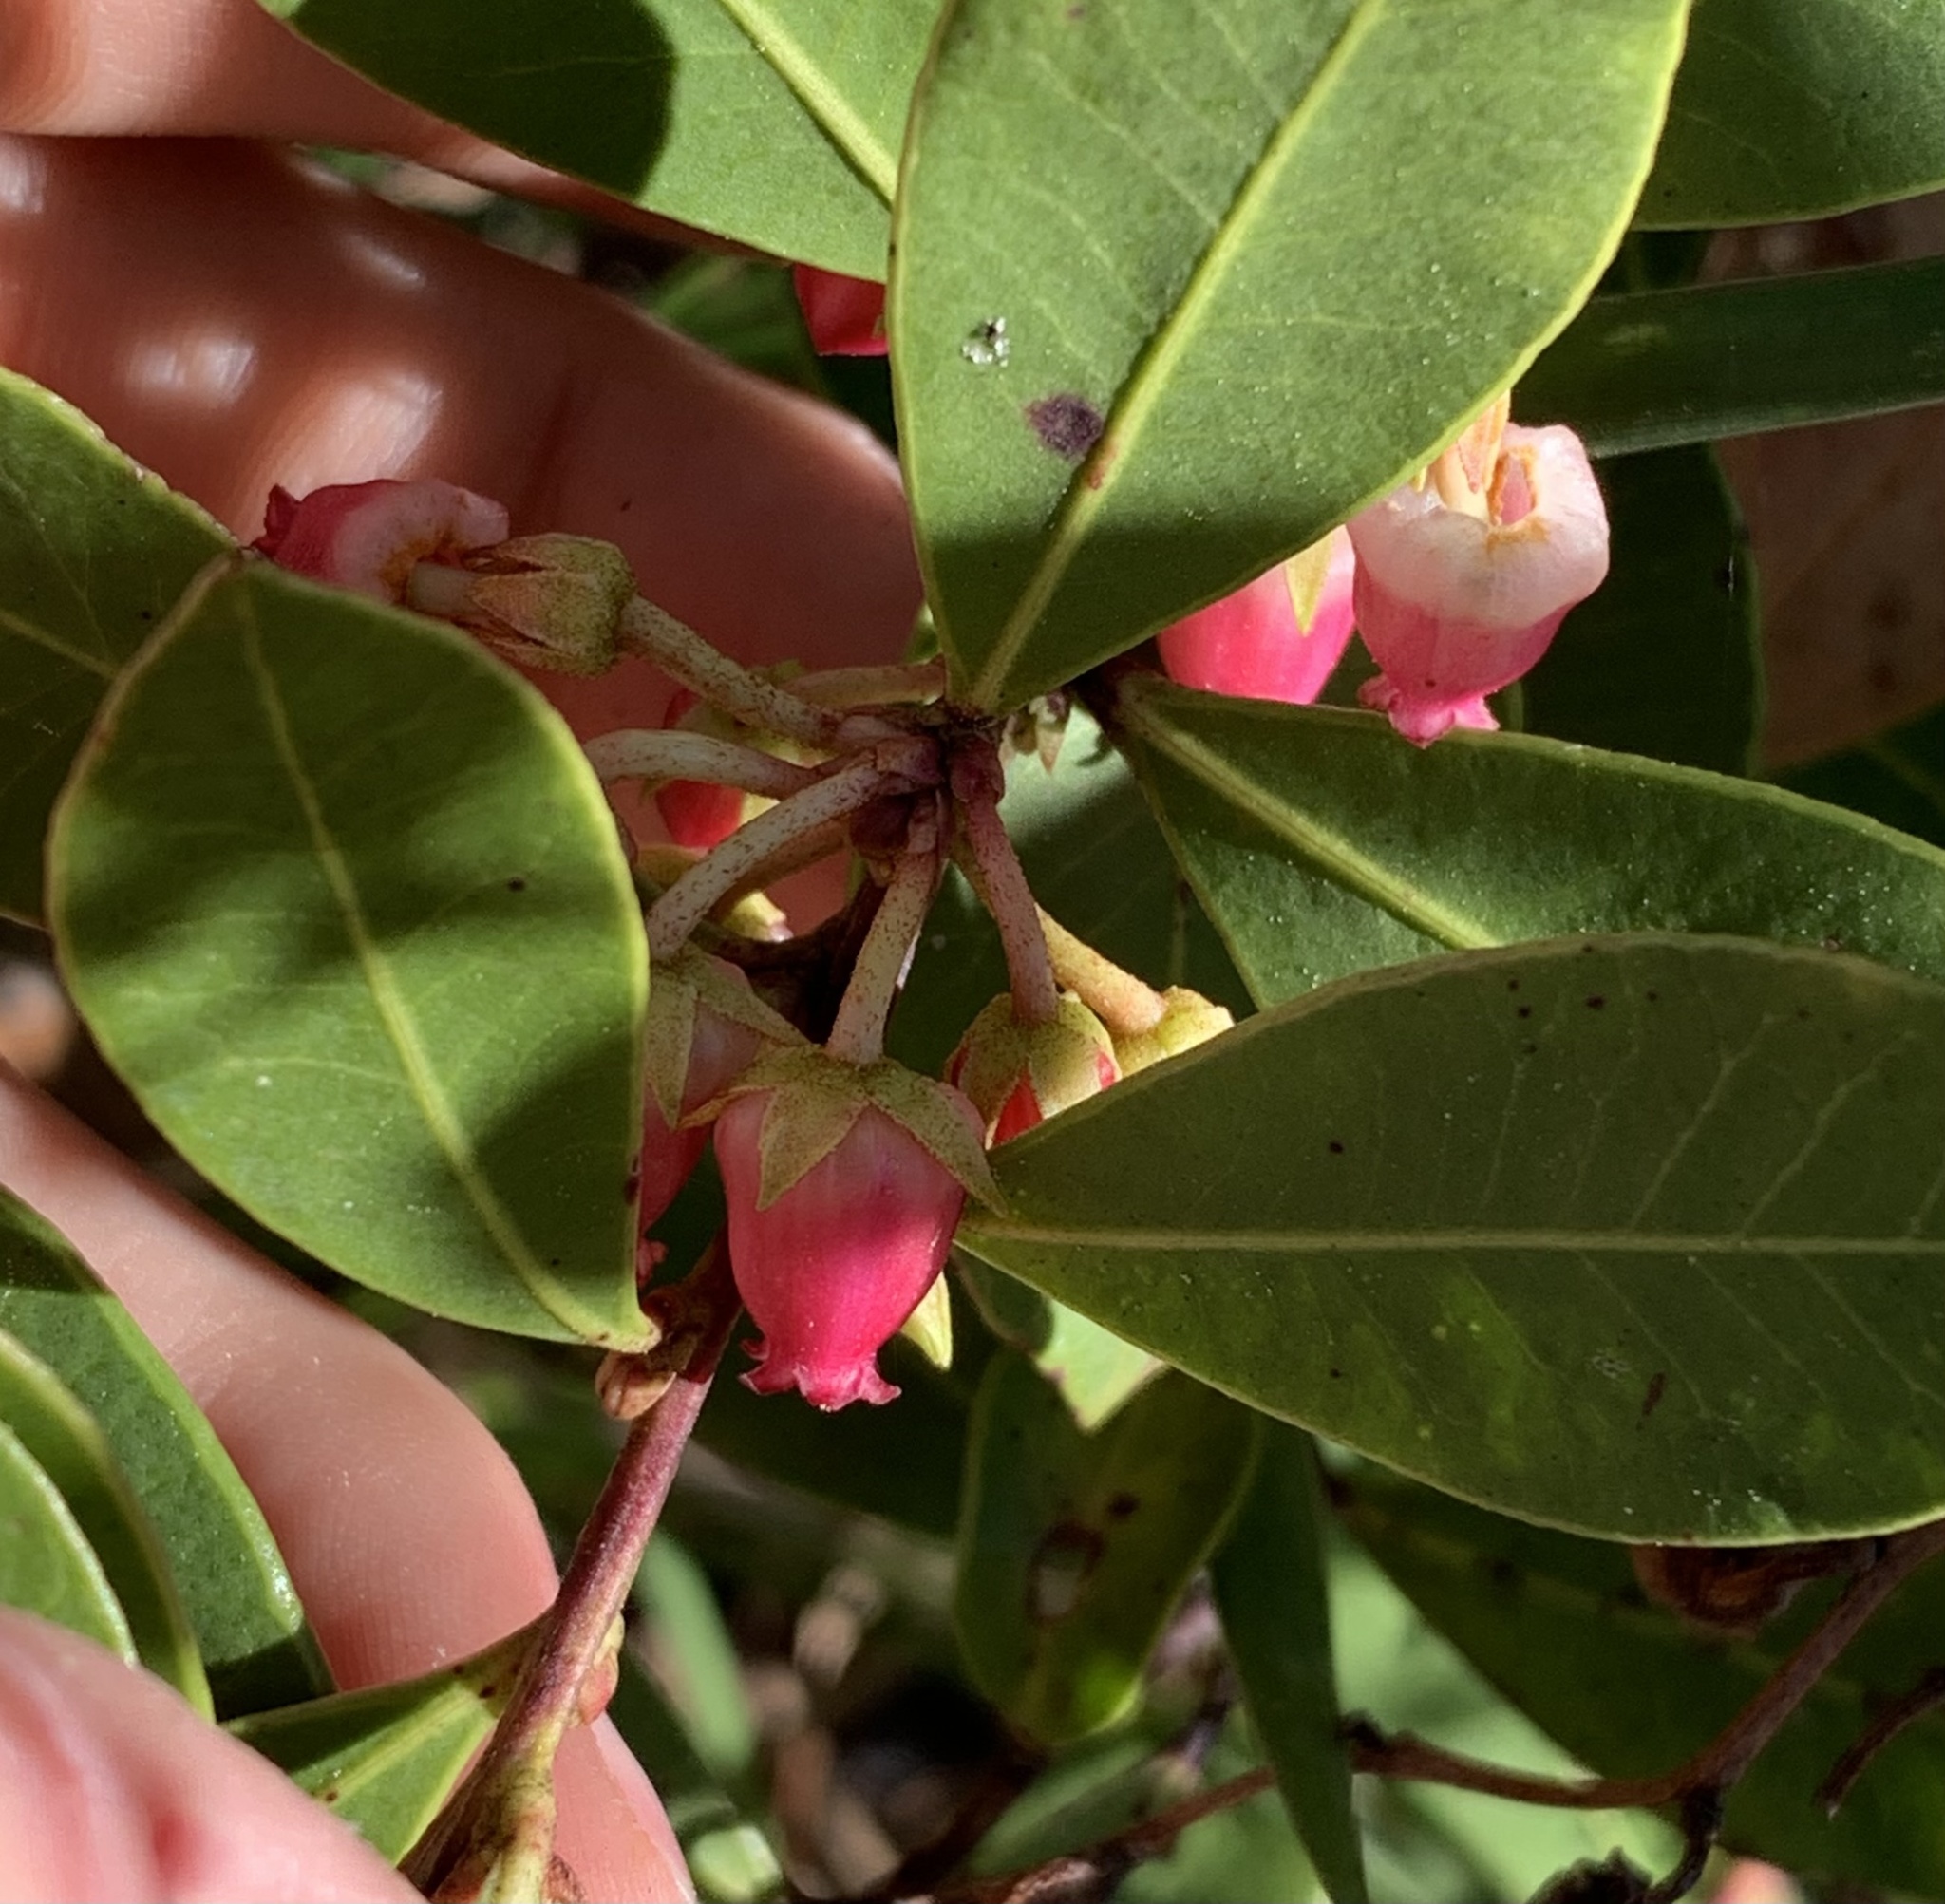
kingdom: Plantae
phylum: Tracheophyta
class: Magnoliopsida
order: Ericales
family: Ericaceae
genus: Lyonia
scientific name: Lyonia lucida
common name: Fetterbush
